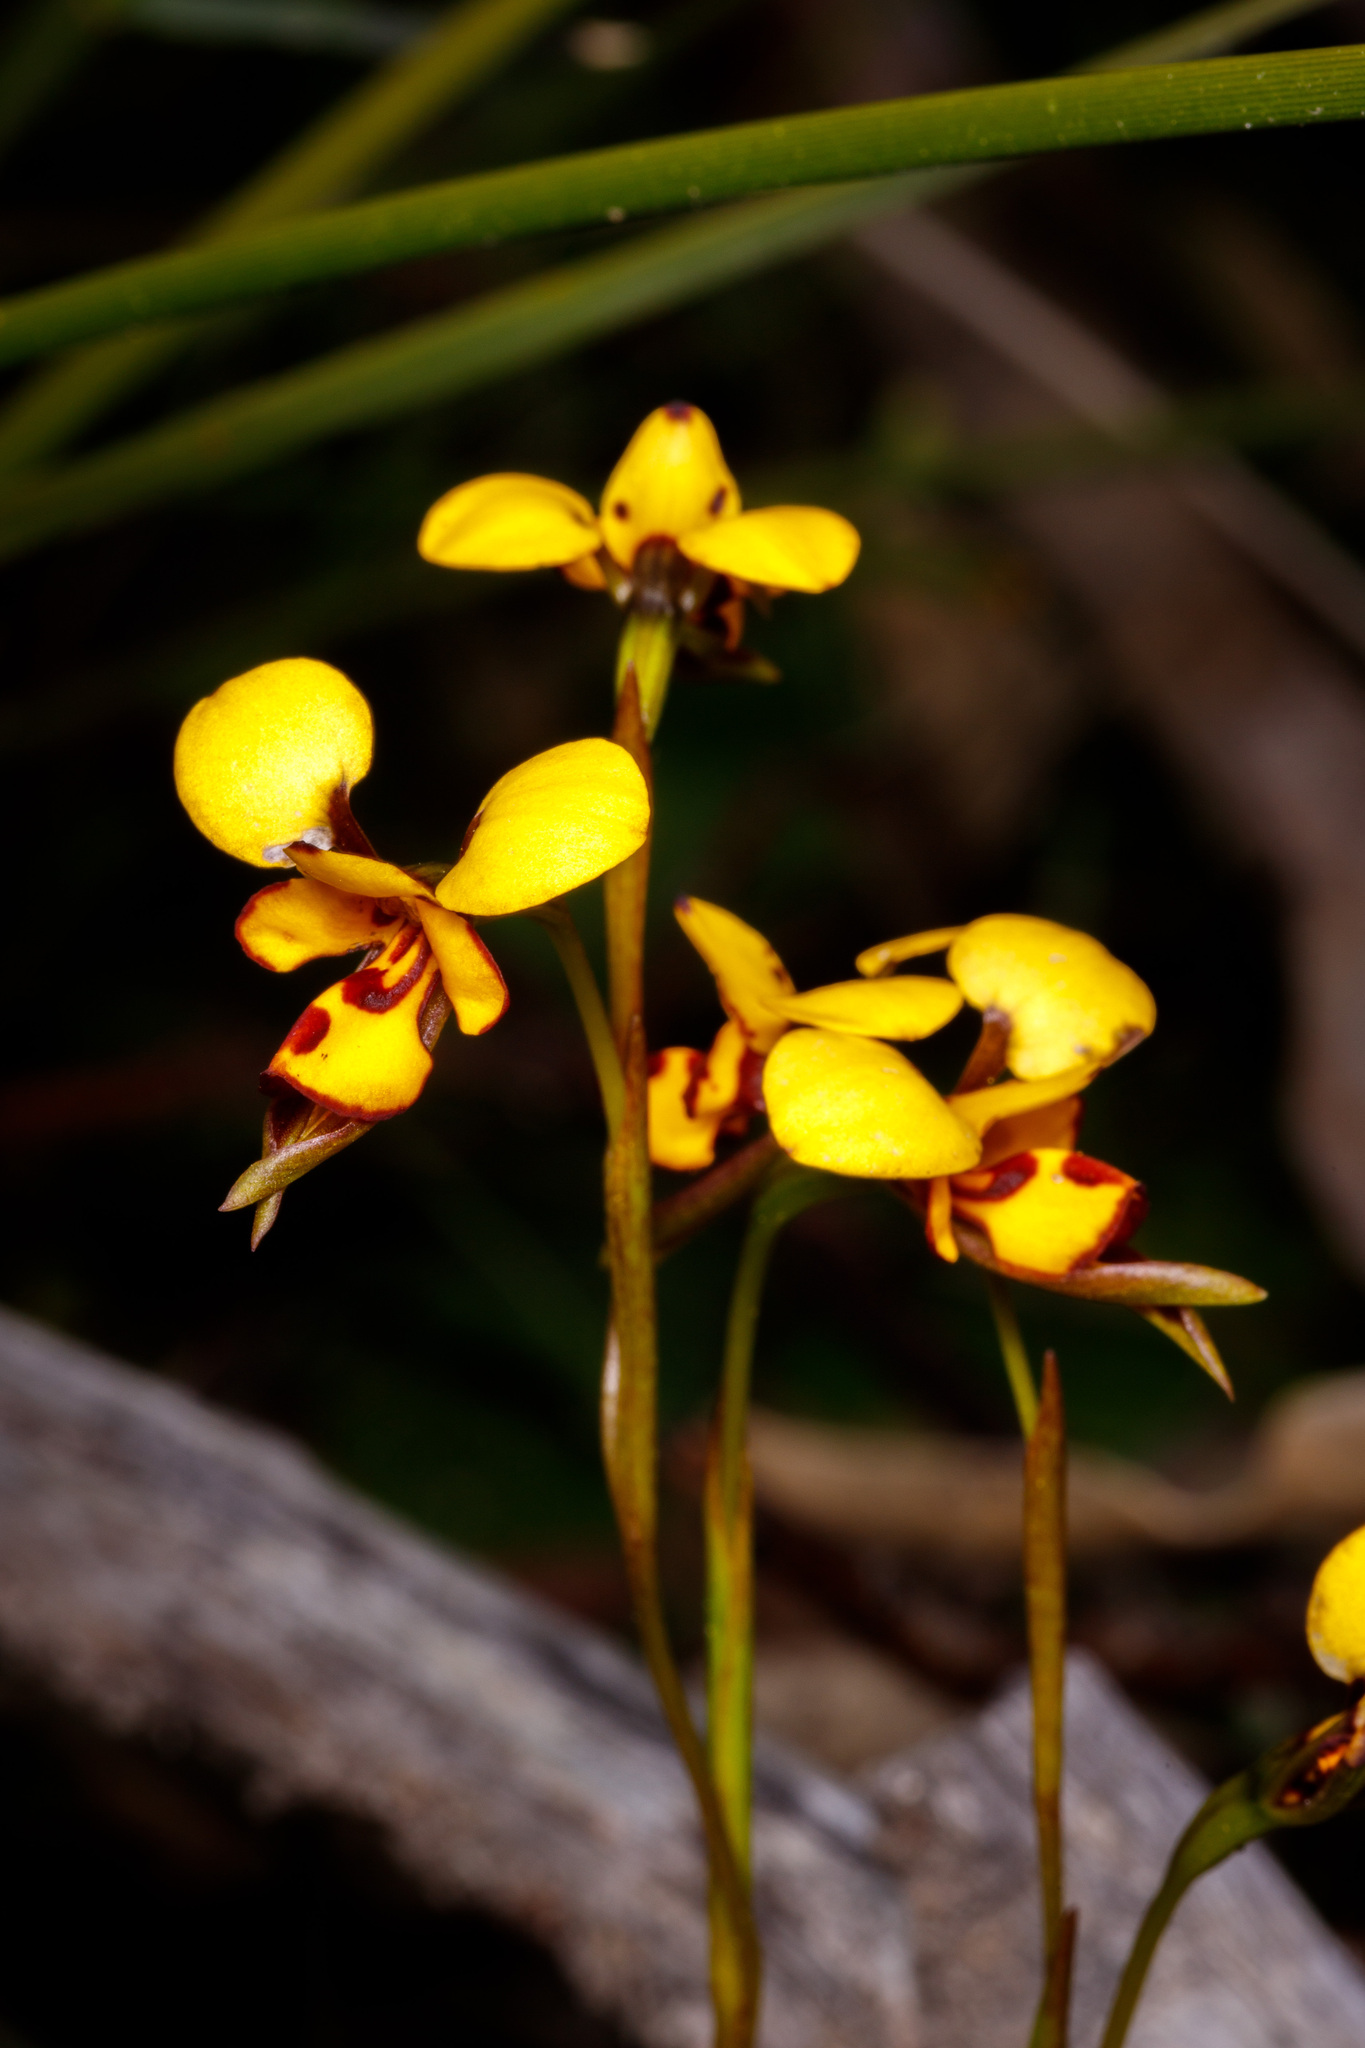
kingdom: Plantae
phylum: Tracheophyta
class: Liliopsida
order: Asparagales
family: Orchidaceae
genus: Diuris
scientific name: Diuris laxiflora
